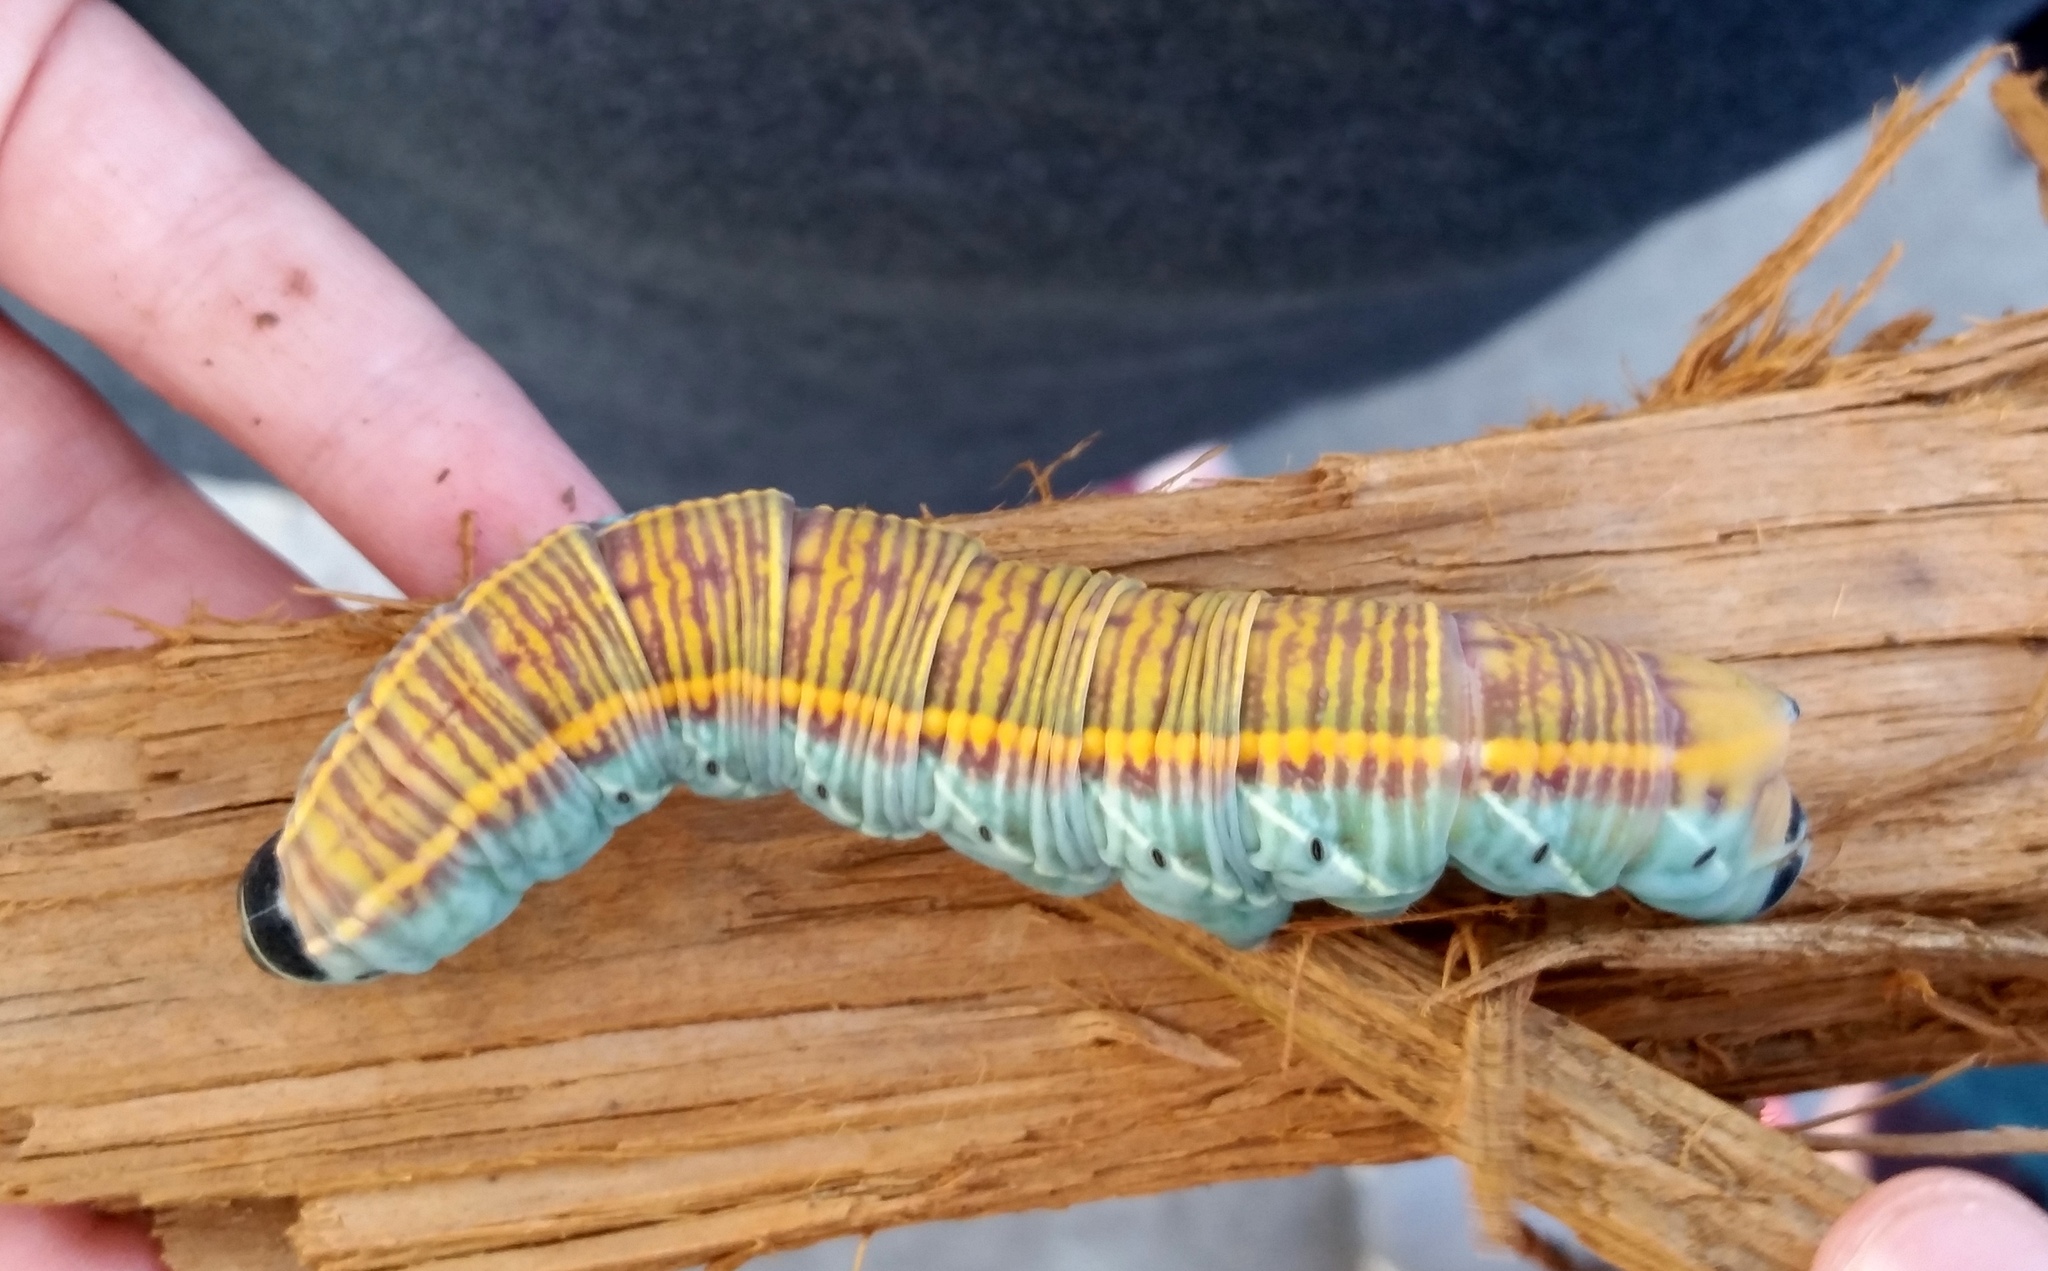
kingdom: Animalia
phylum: Arthropoda
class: Insecta
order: Lepidoptera
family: Sphingidae
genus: Pachylia
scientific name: Pachylia ficus
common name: Fig sphinx
